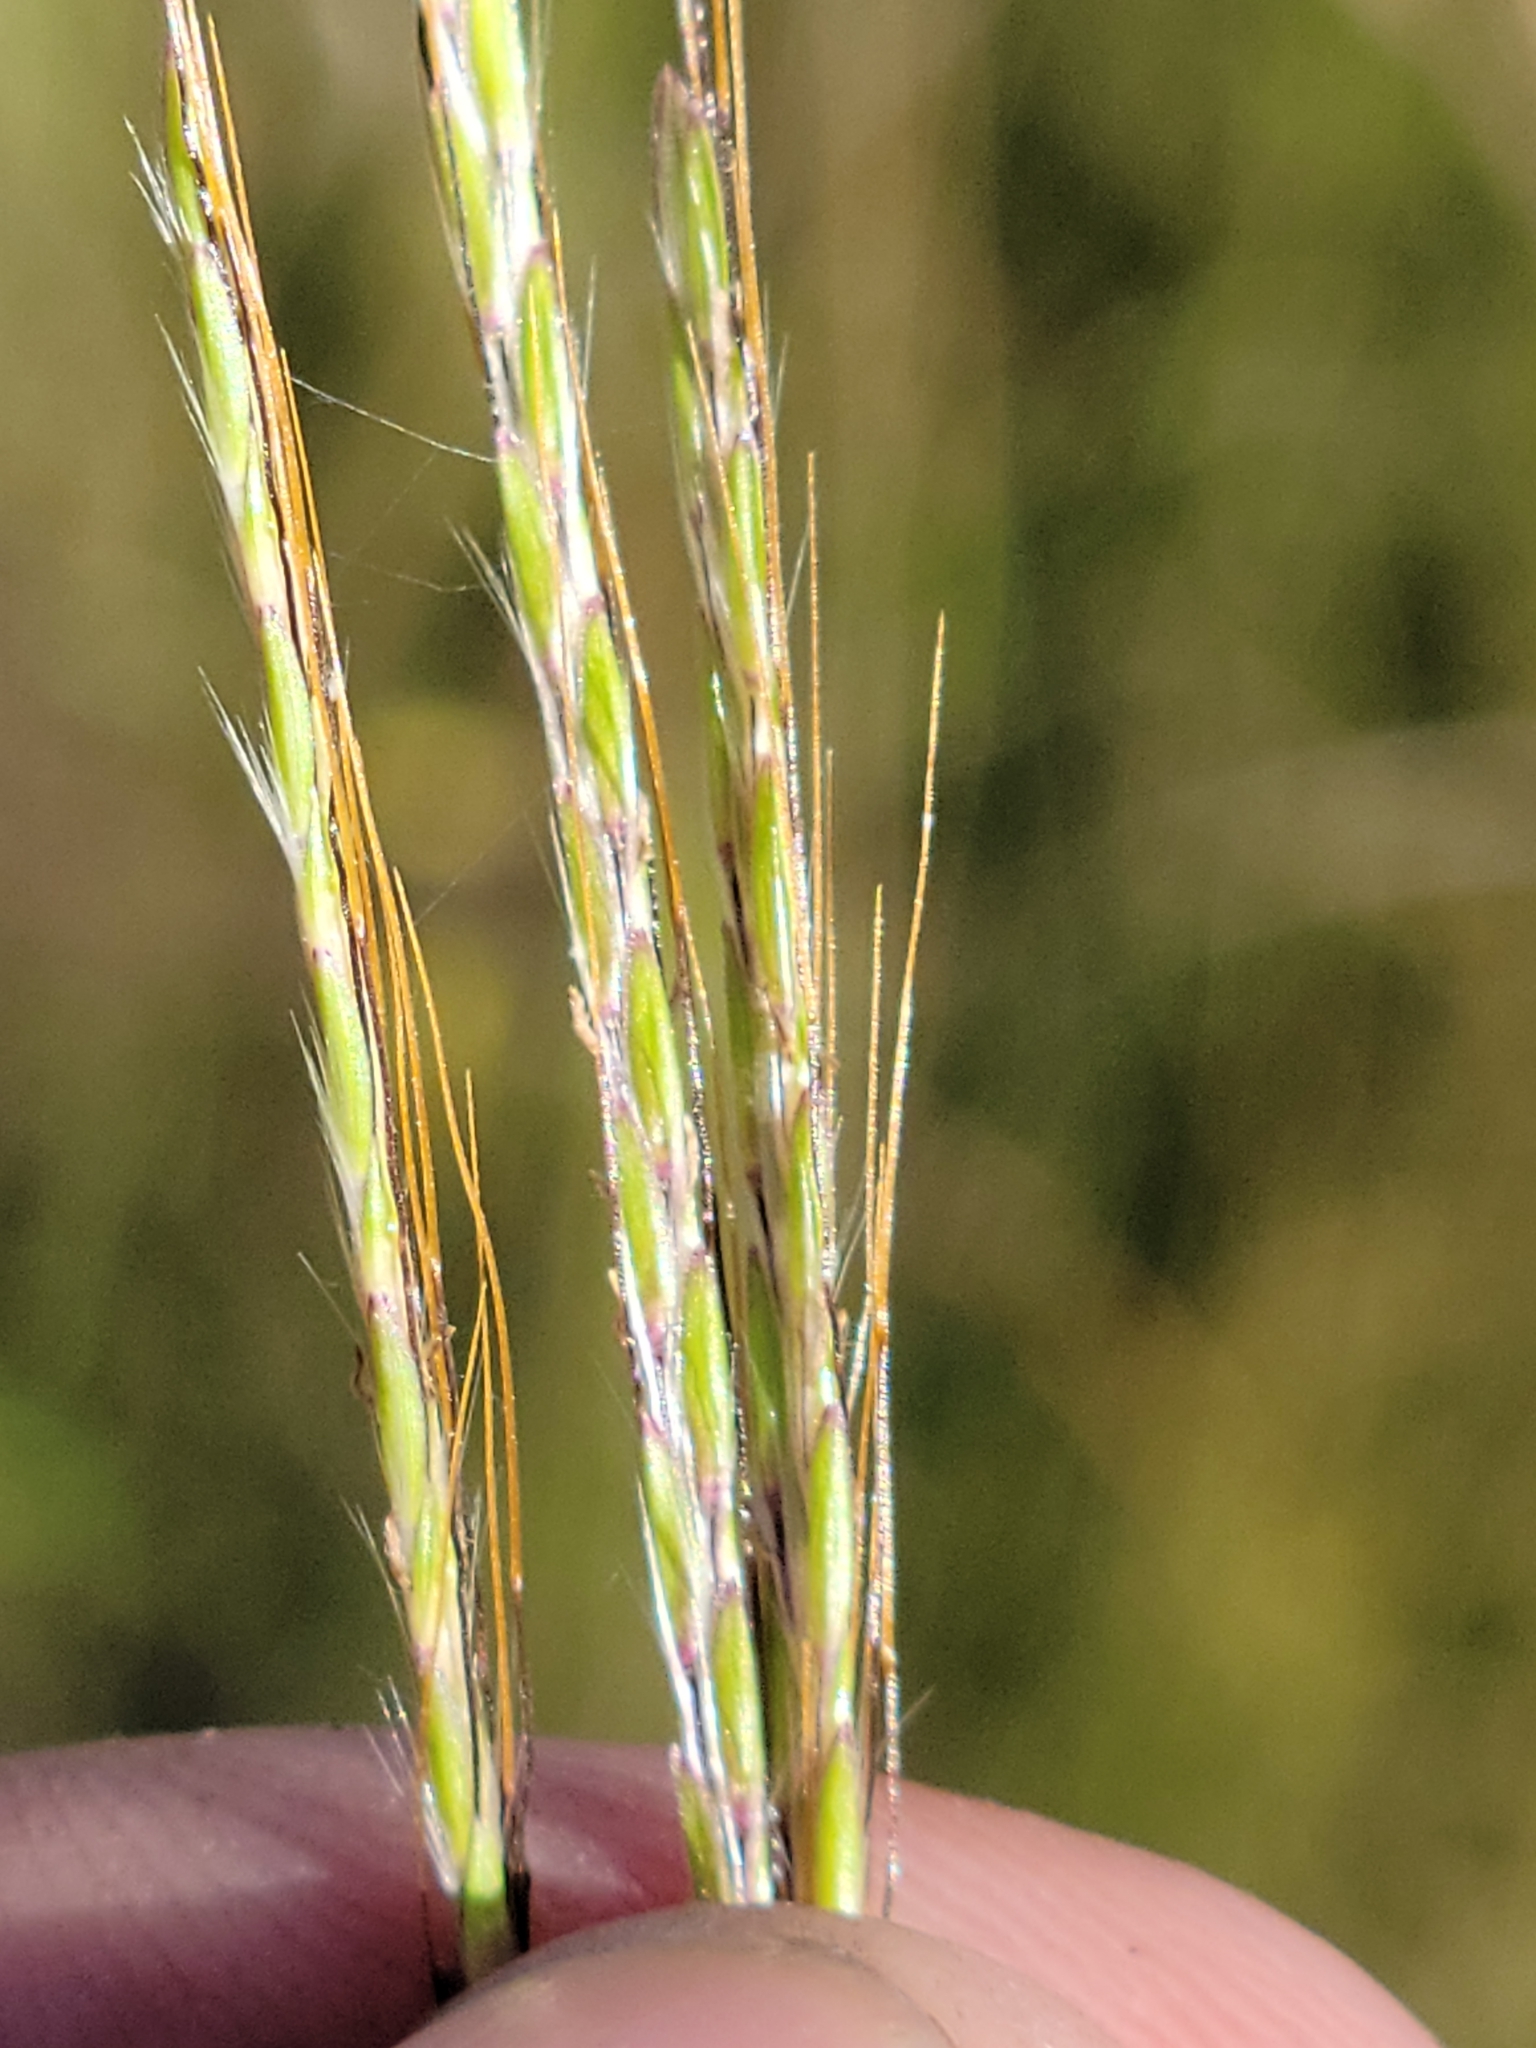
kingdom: Plantae
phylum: Tracheophyta
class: Liliopsida
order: Poales
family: Poaceae
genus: Bothriochloa
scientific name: Bothriochloa pertusa
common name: Pitted beardgrass
